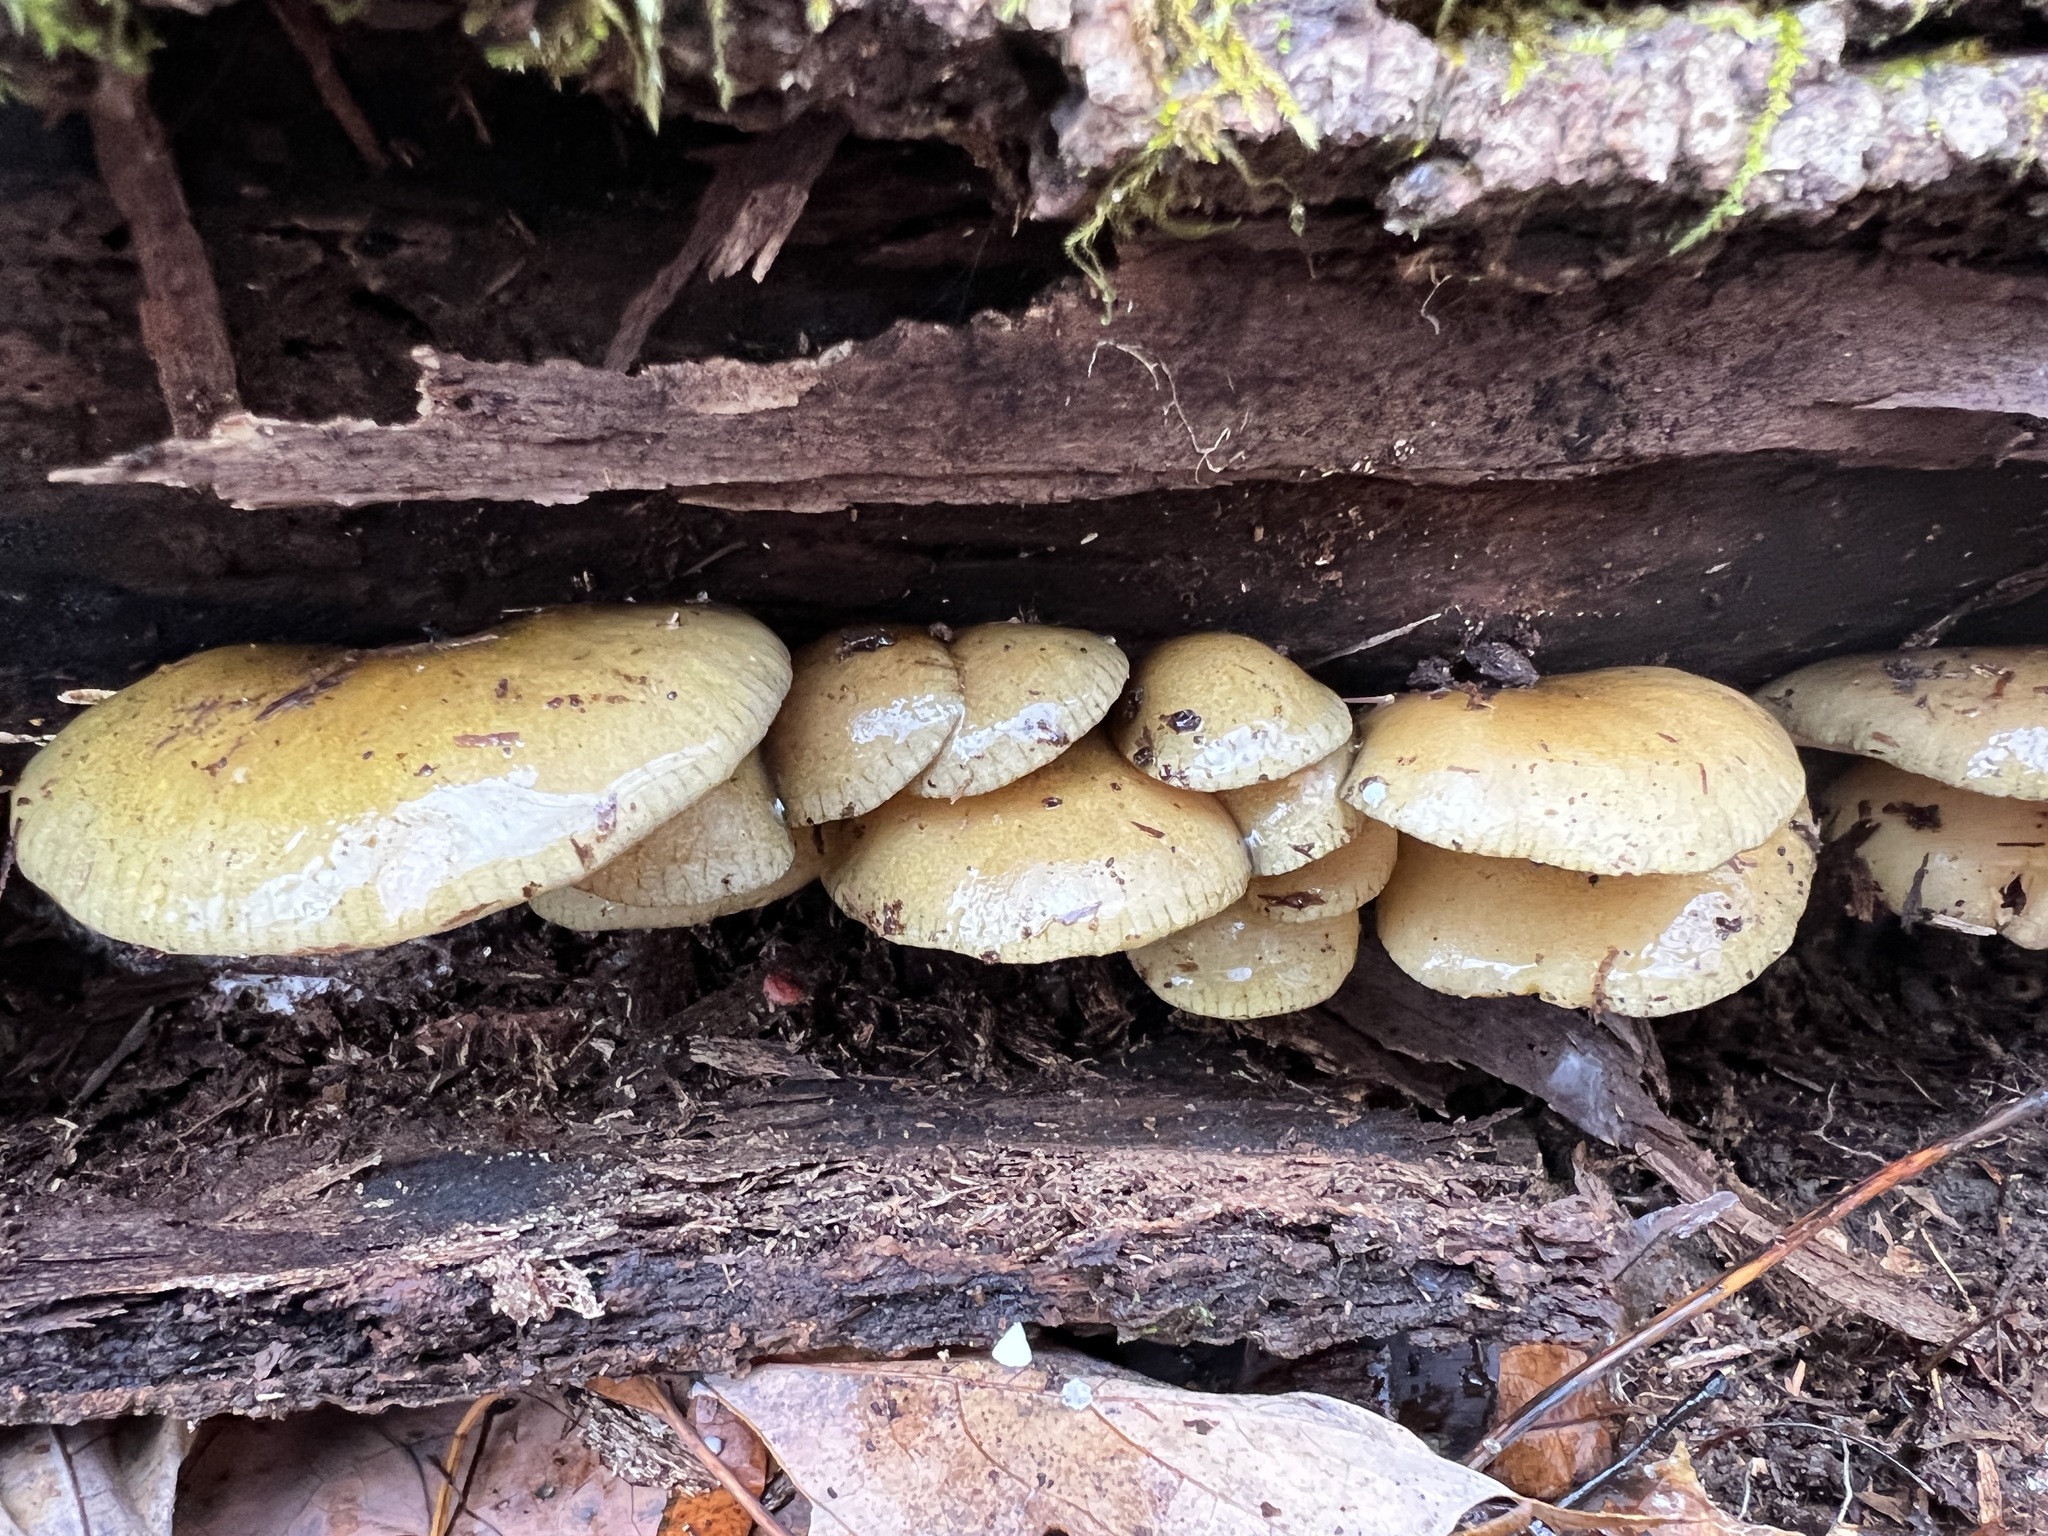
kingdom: Fungi
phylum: Basidiomycota
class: Agaricomycetes
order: Agaricales
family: Sarcomyxaceae
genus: Sarcomyxa
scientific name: Sarcomyxa serotina
